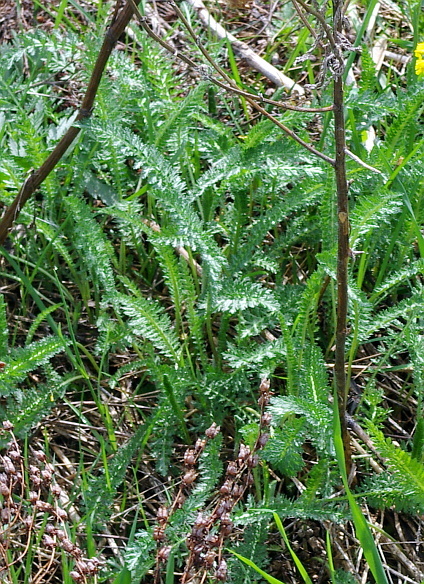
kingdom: Plantae
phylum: Tracheophyta
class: Magnoliopsida
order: Asterales
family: Asteraceae
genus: Achillea
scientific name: Achillea millefolium
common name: Yarrow
